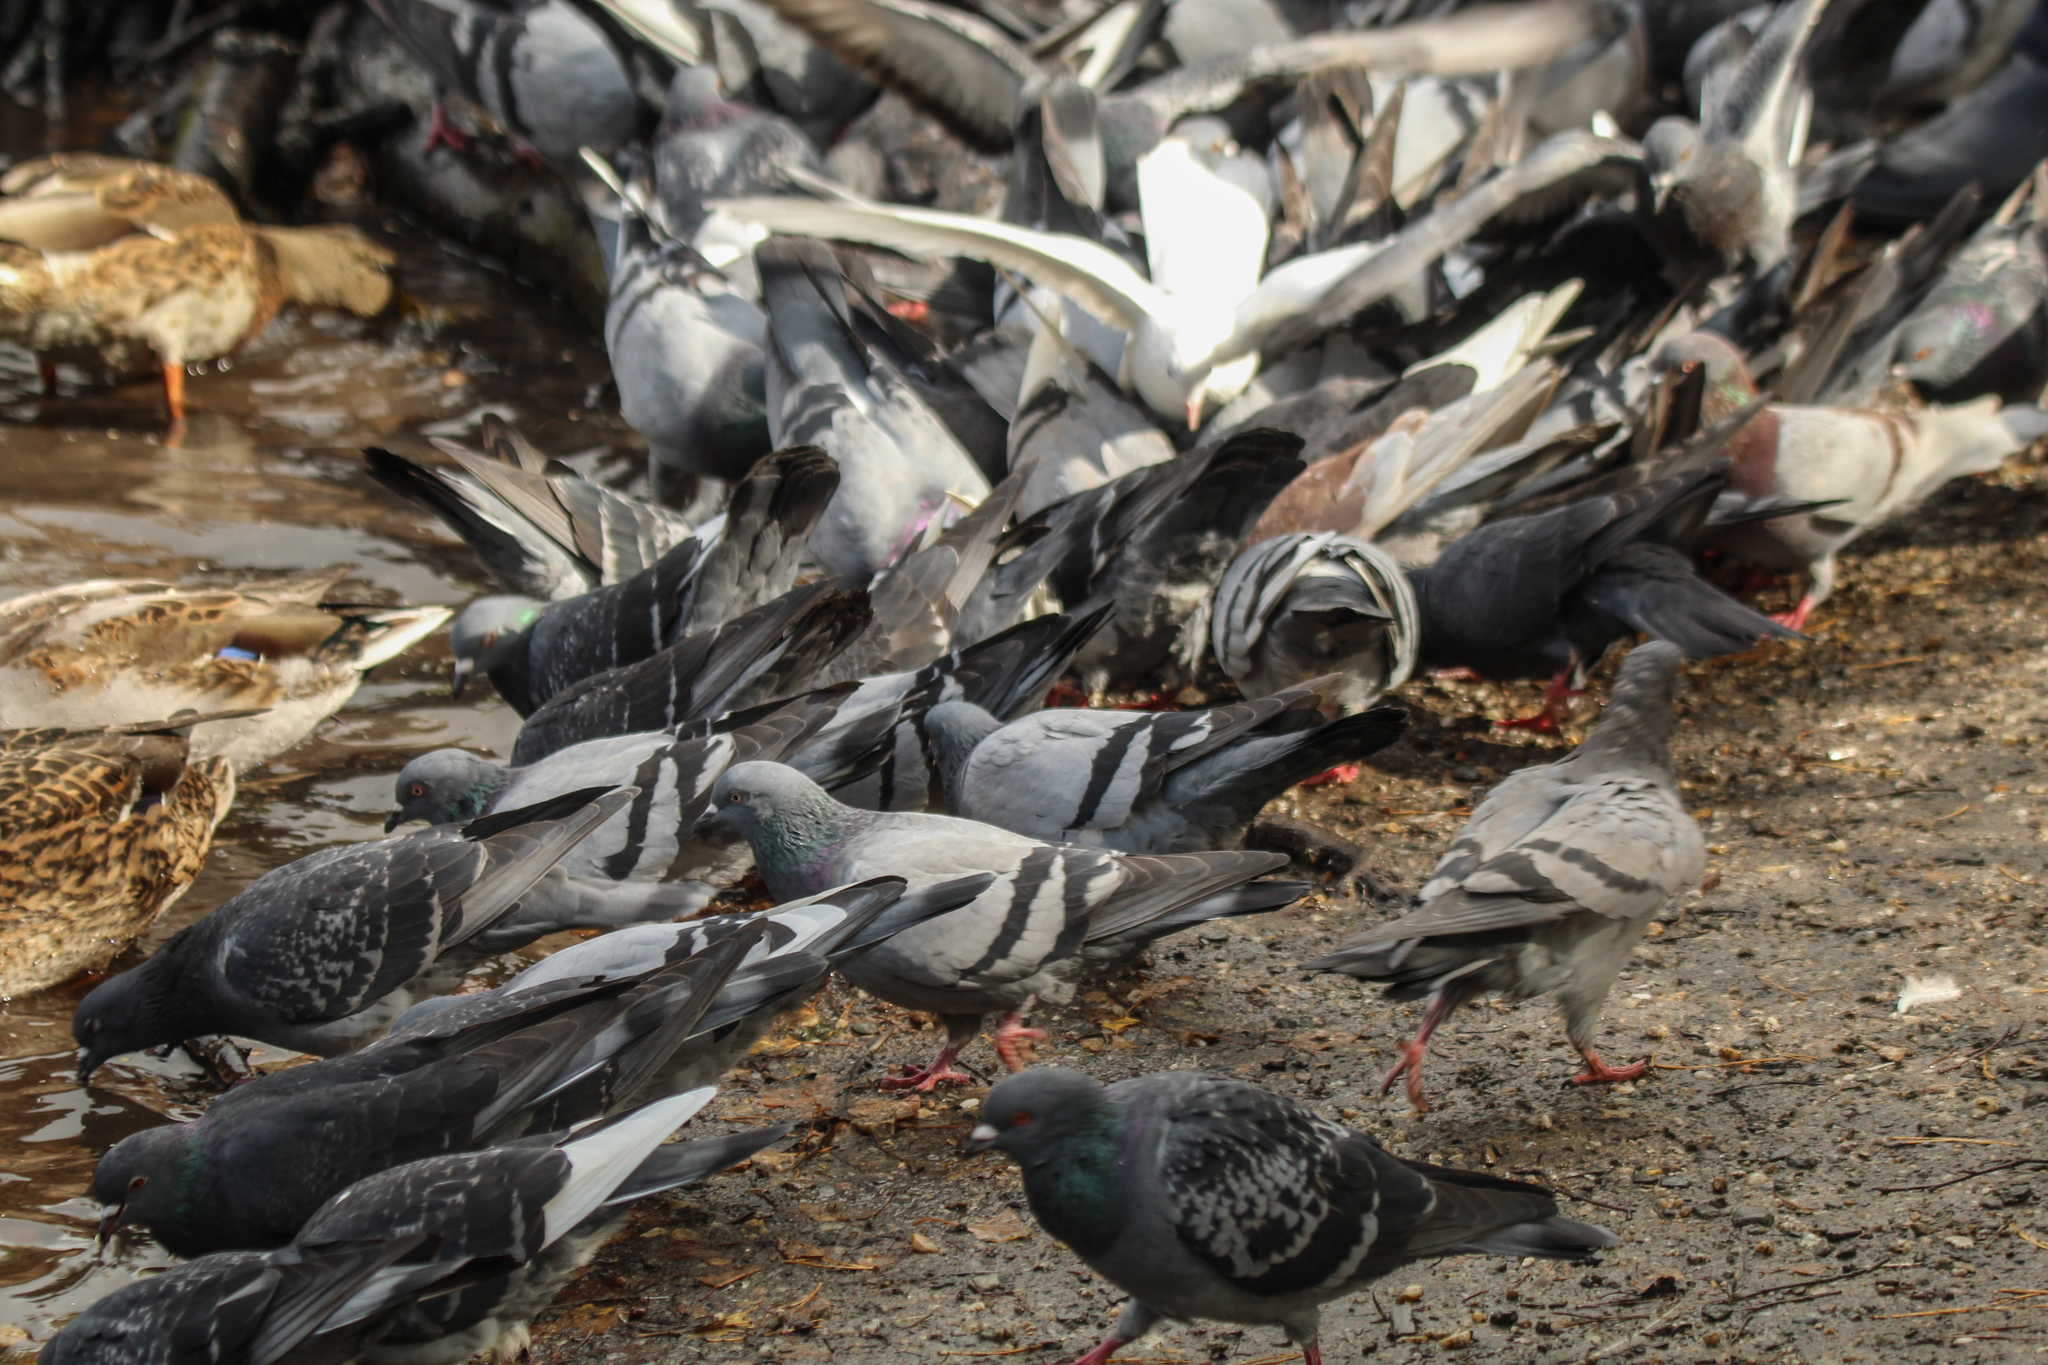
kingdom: Animalia
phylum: Chordata
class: Aves
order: Columbiformes
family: Columbidae
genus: Columba
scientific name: Columba livia
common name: Rock pigeon
